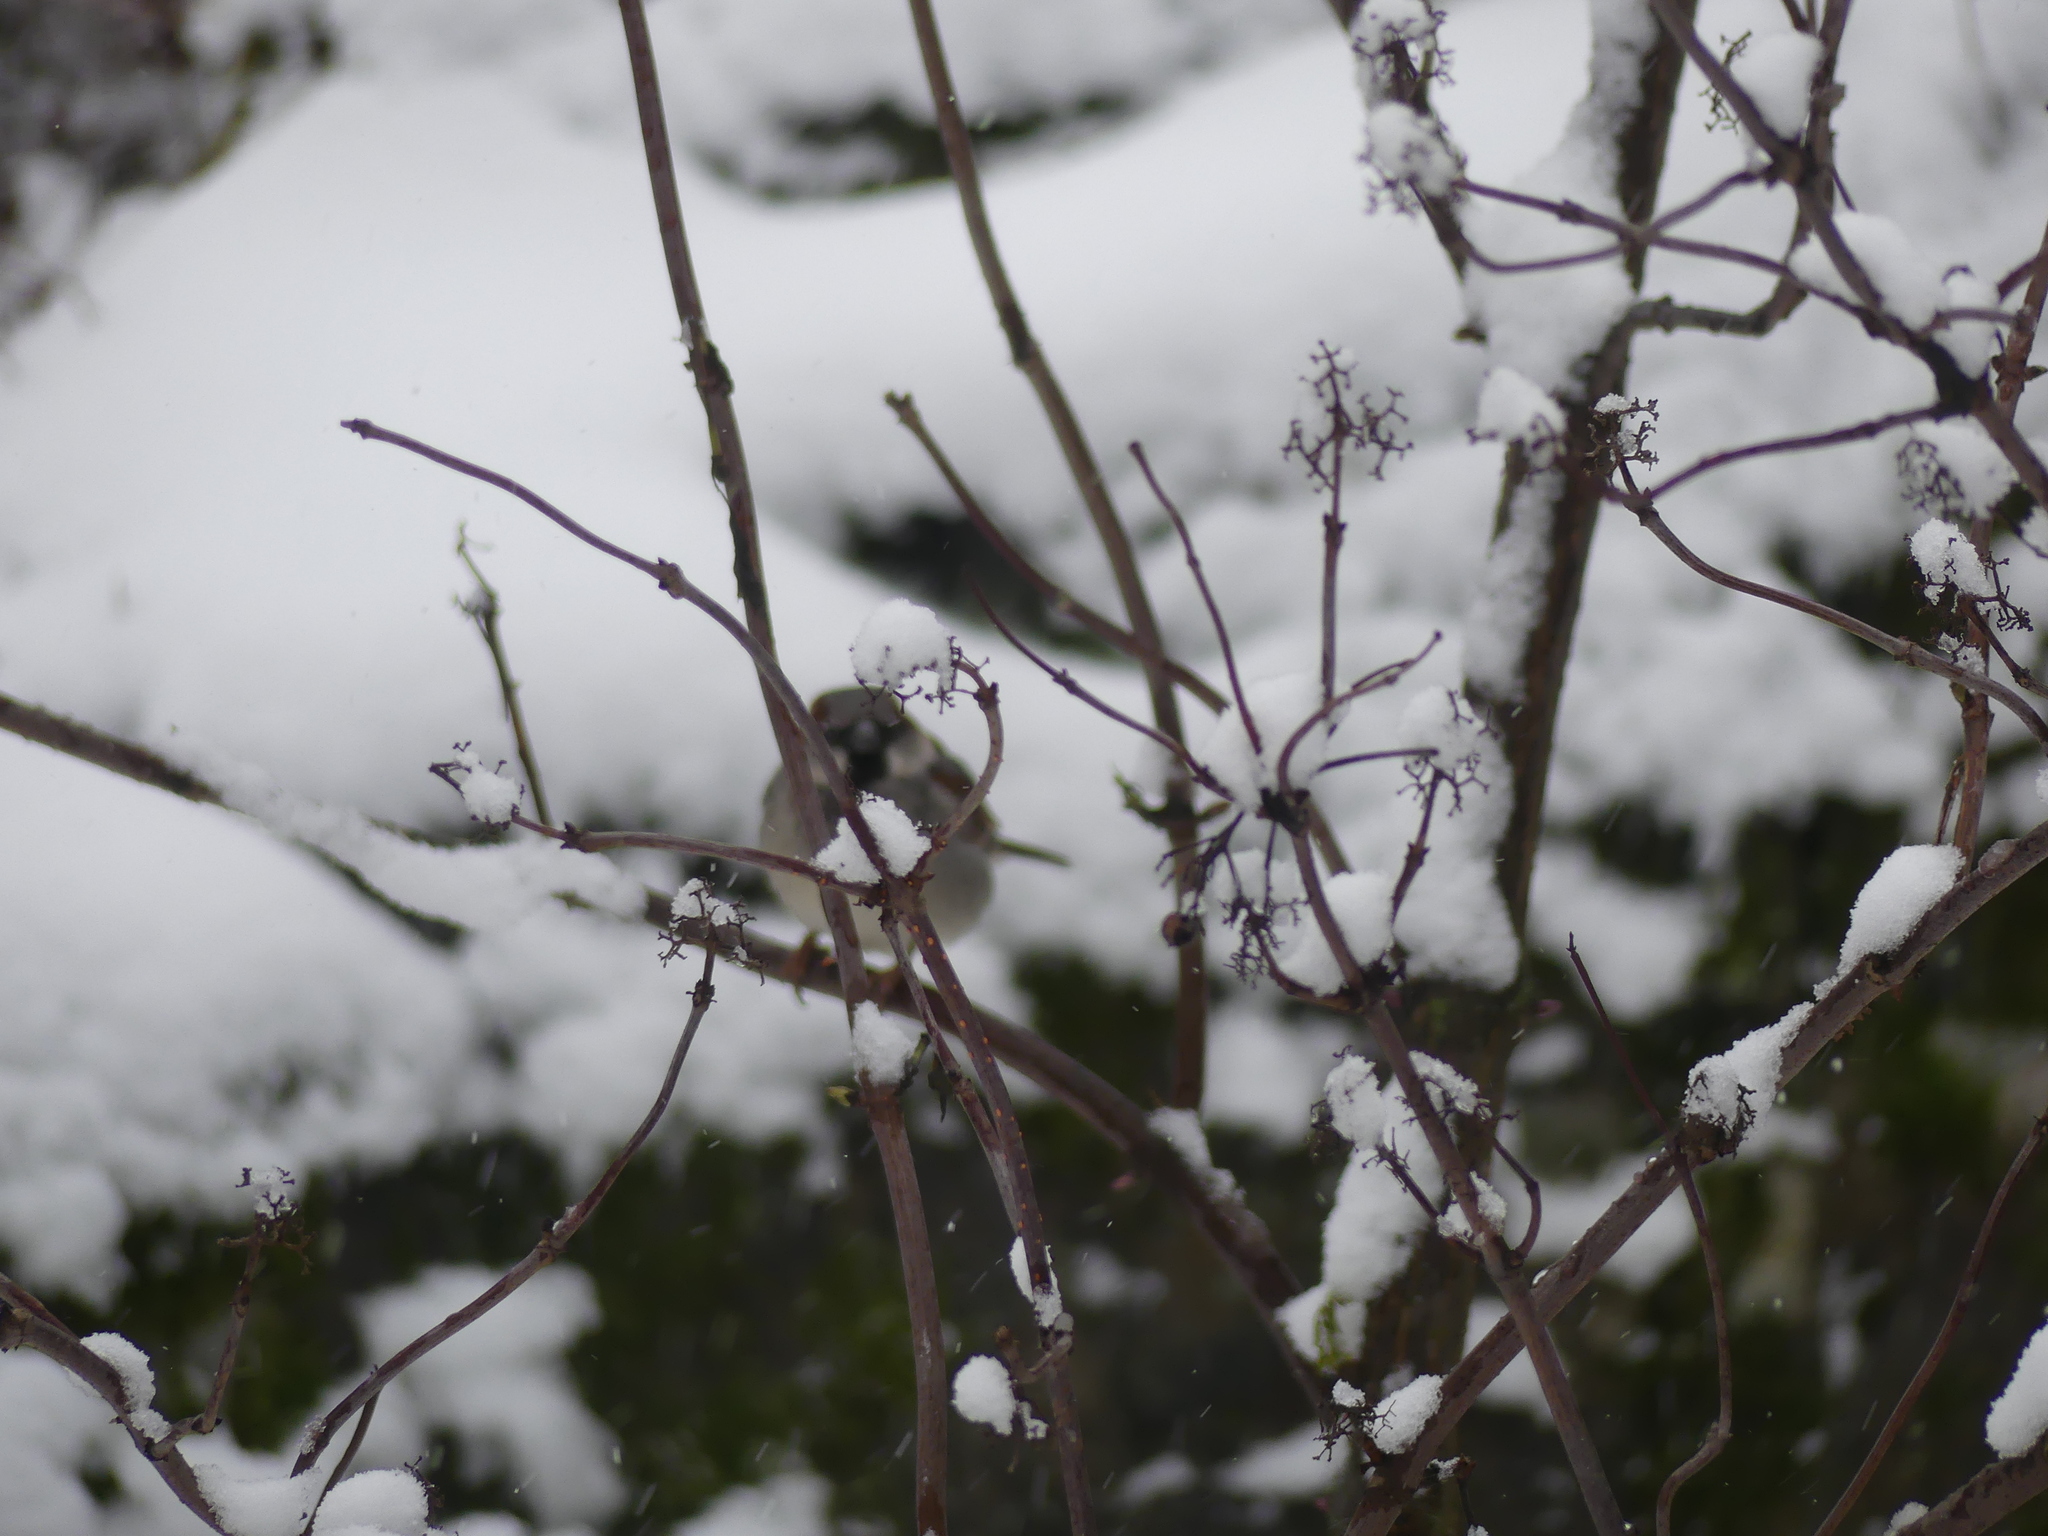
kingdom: Animalia
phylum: Chordata
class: Aves
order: Passeriformes
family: Passeridae
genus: Passer
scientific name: Passer domesticus
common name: House sparrow
